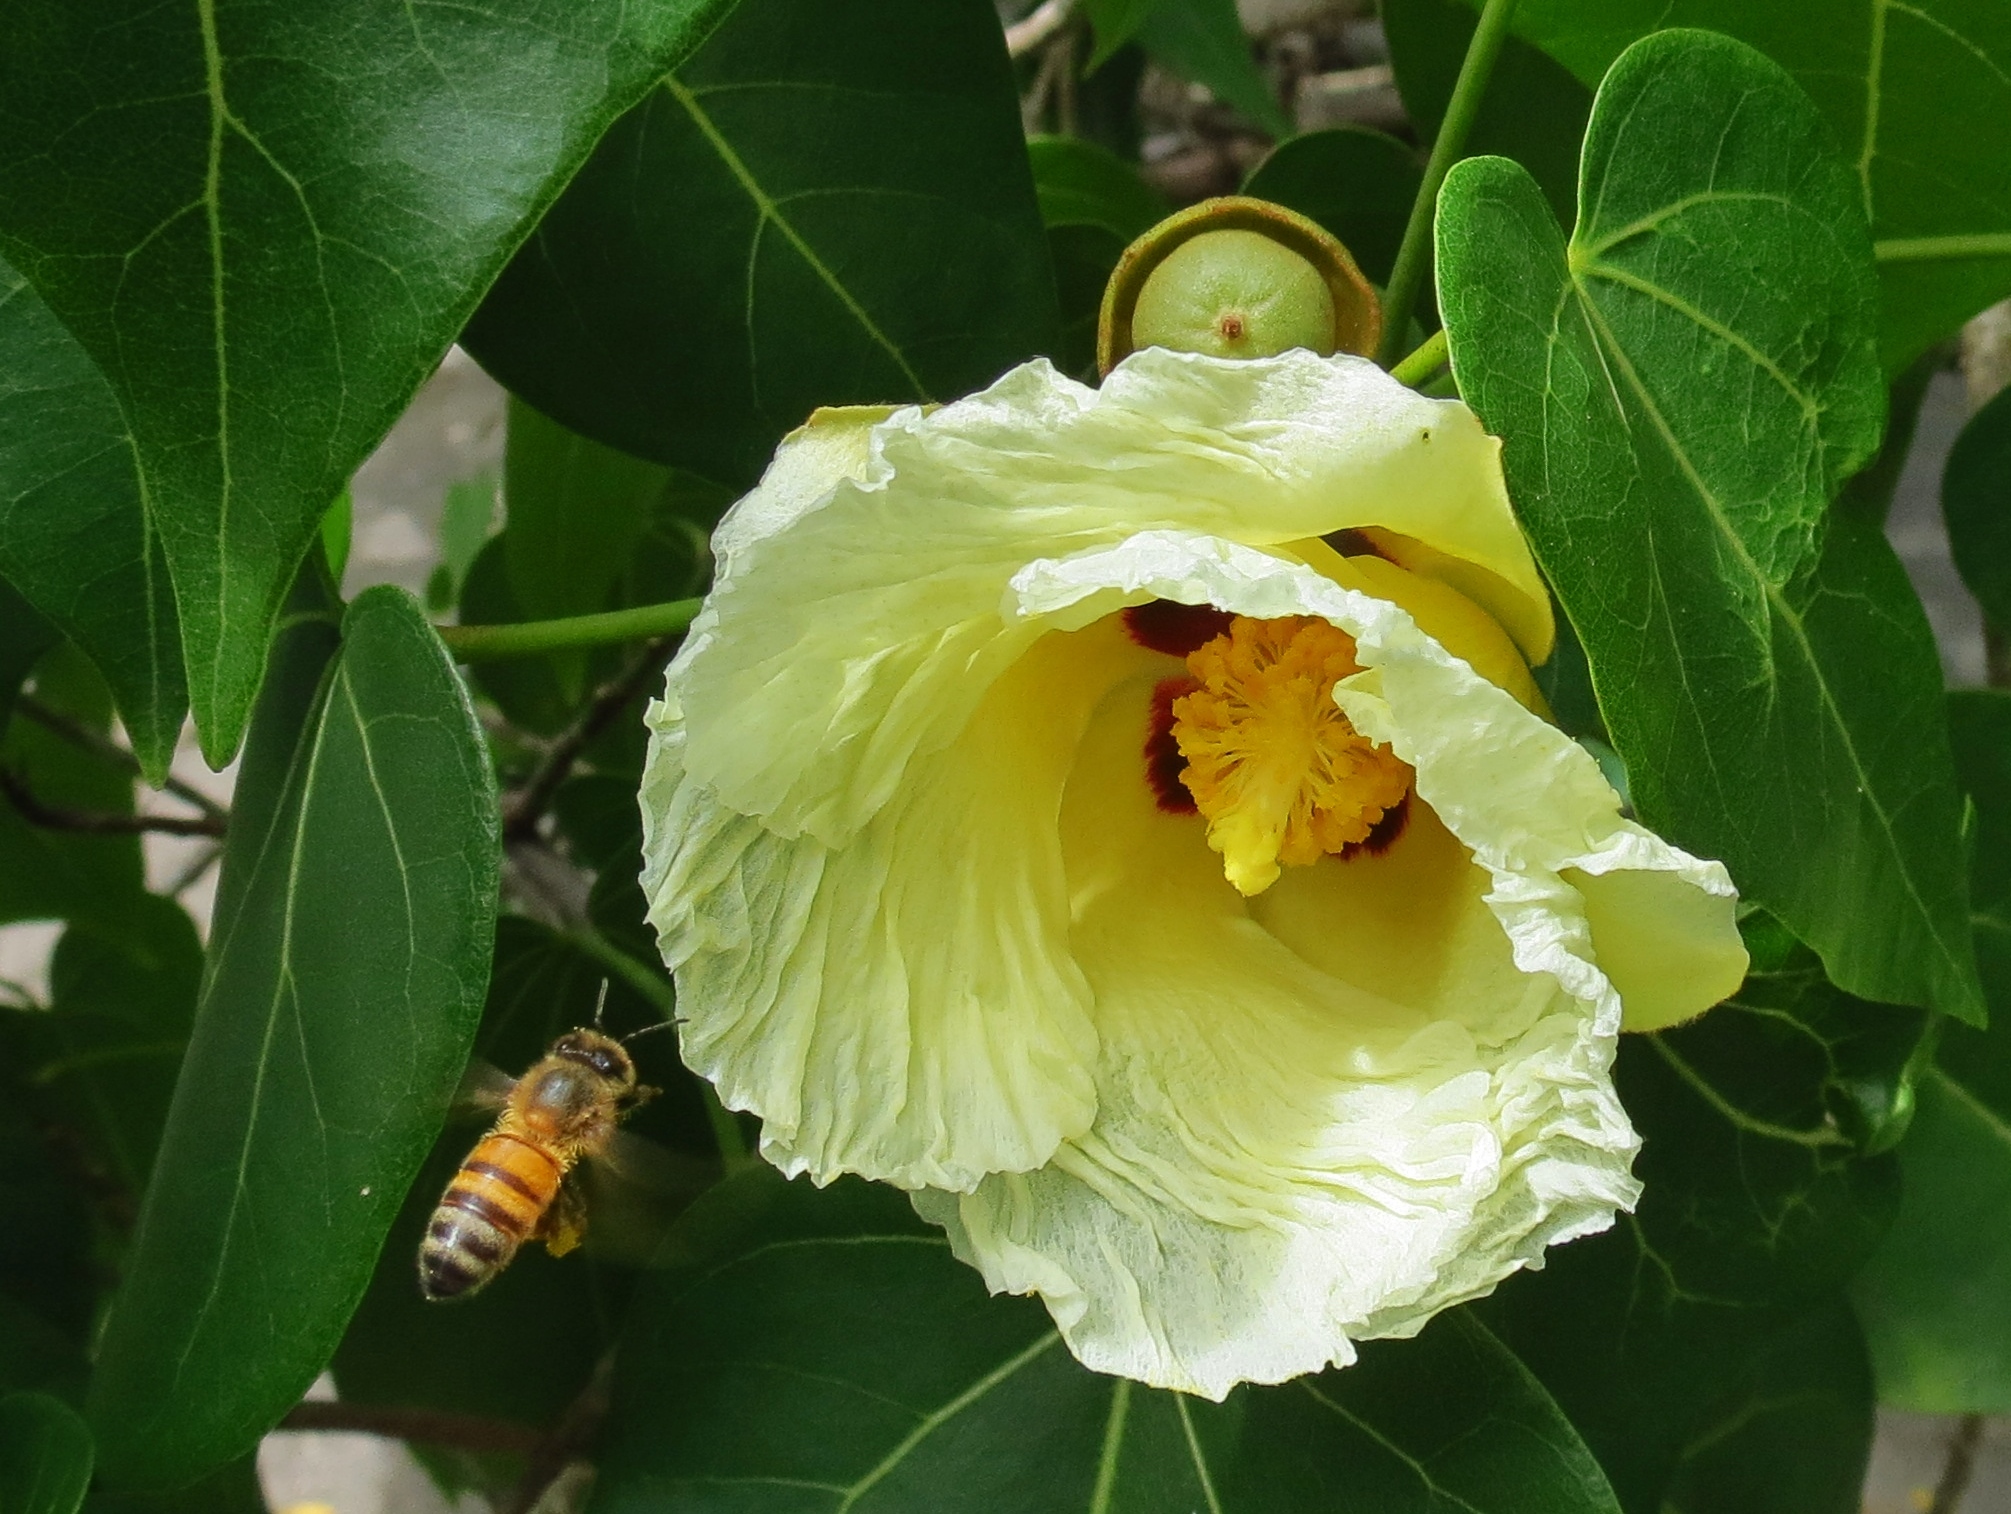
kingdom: Animalia
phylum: Arthropoda
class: Insecta
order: Hymenoptera
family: Apidae
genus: Apis
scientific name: Apis mellifera
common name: Honey bee
